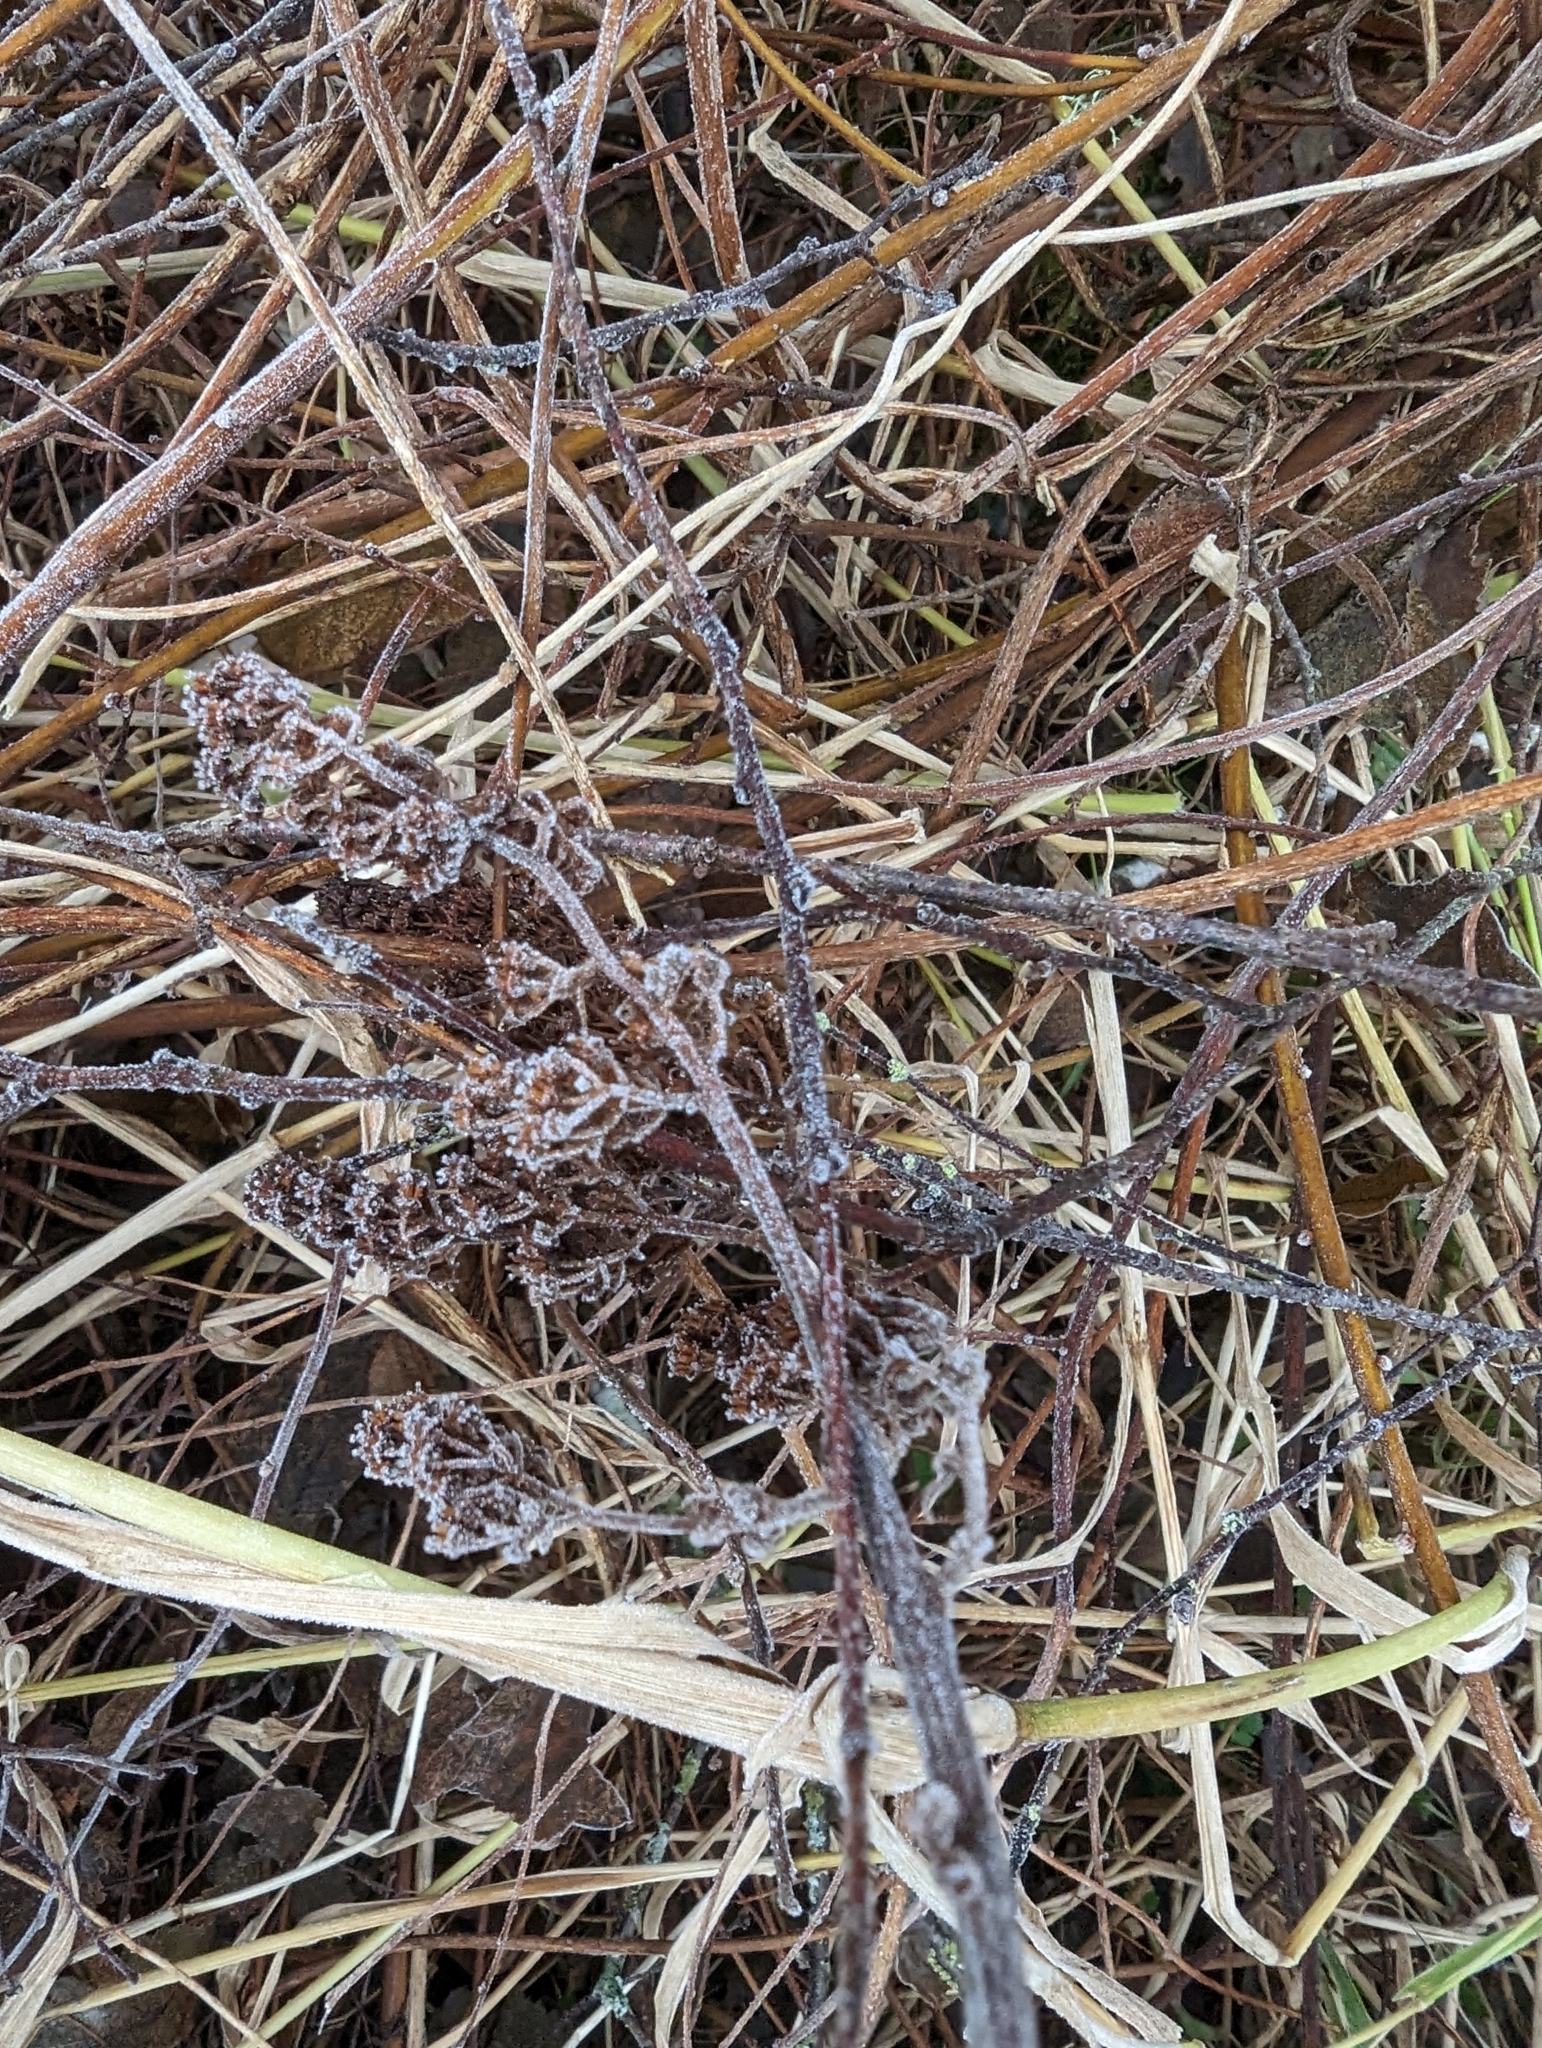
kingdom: Plantae
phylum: Tracheophyta
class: Magnoliopsida
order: Rosales
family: Rosaceae
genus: Spiraea
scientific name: Spiraea douglasii
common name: Steeplebush
